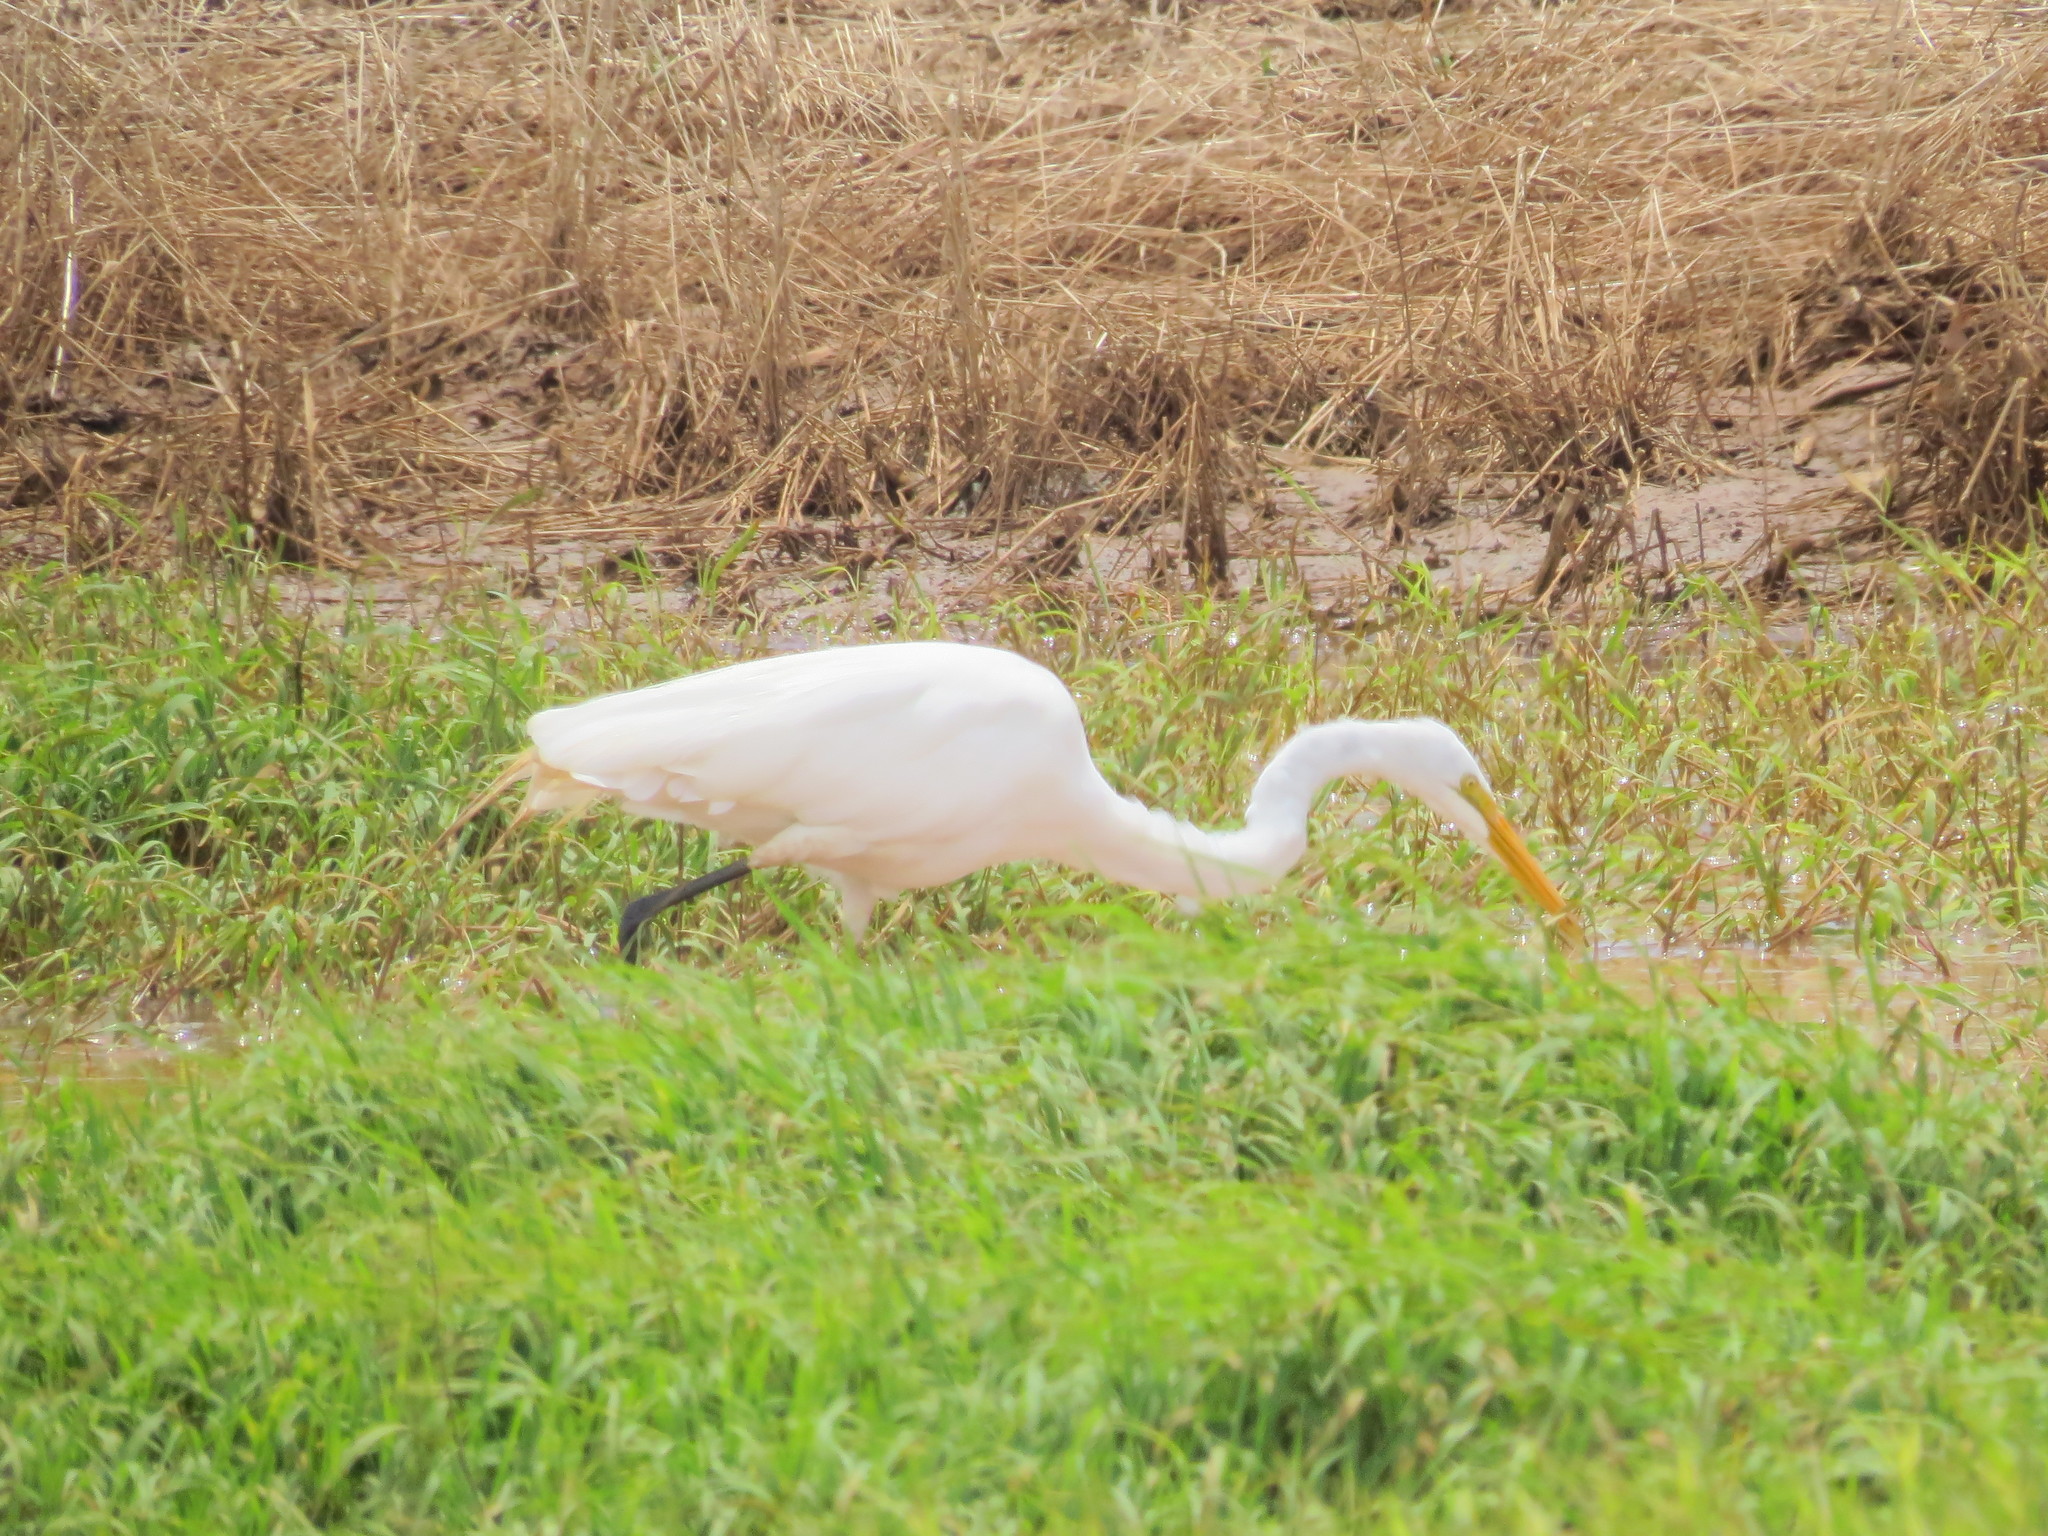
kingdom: Animalia
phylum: Chordata
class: Aves
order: Pelecaniformes
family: Ardeidae
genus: Ardea
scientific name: Ardea alba
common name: Great egret
